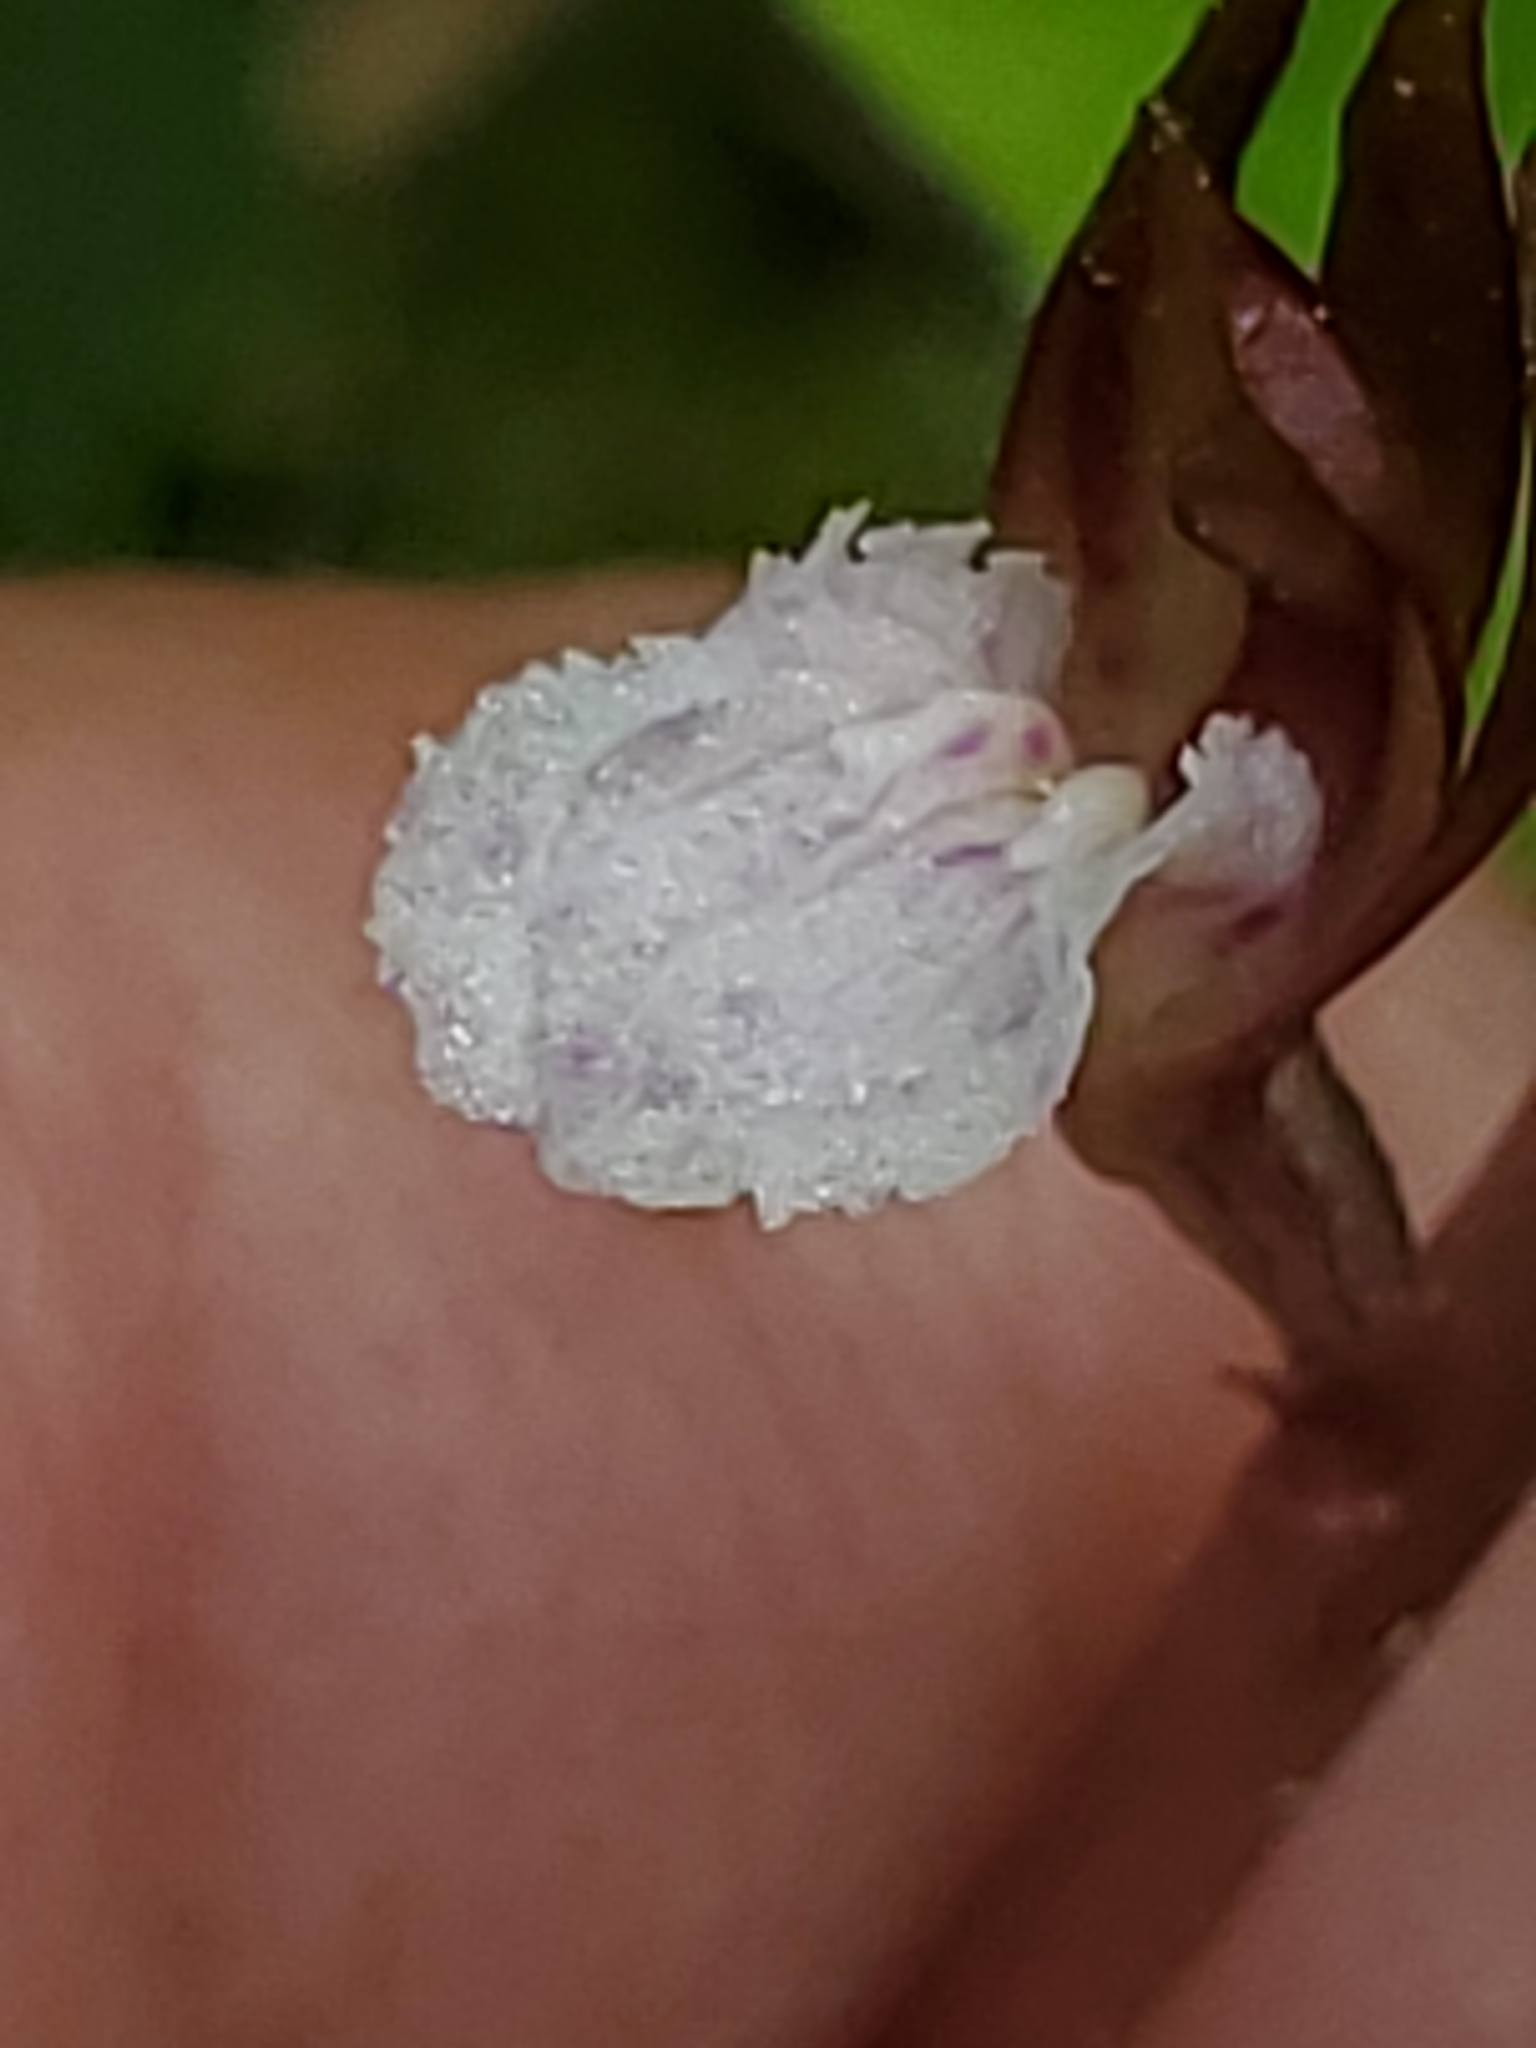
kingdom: Plantae
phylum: Tracheophyta
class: Liliopsida
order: Asparagales
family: Orchidaceae
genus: Corallorhiza
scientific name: Corallorhiza wisteriana
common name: Spring coralroot
